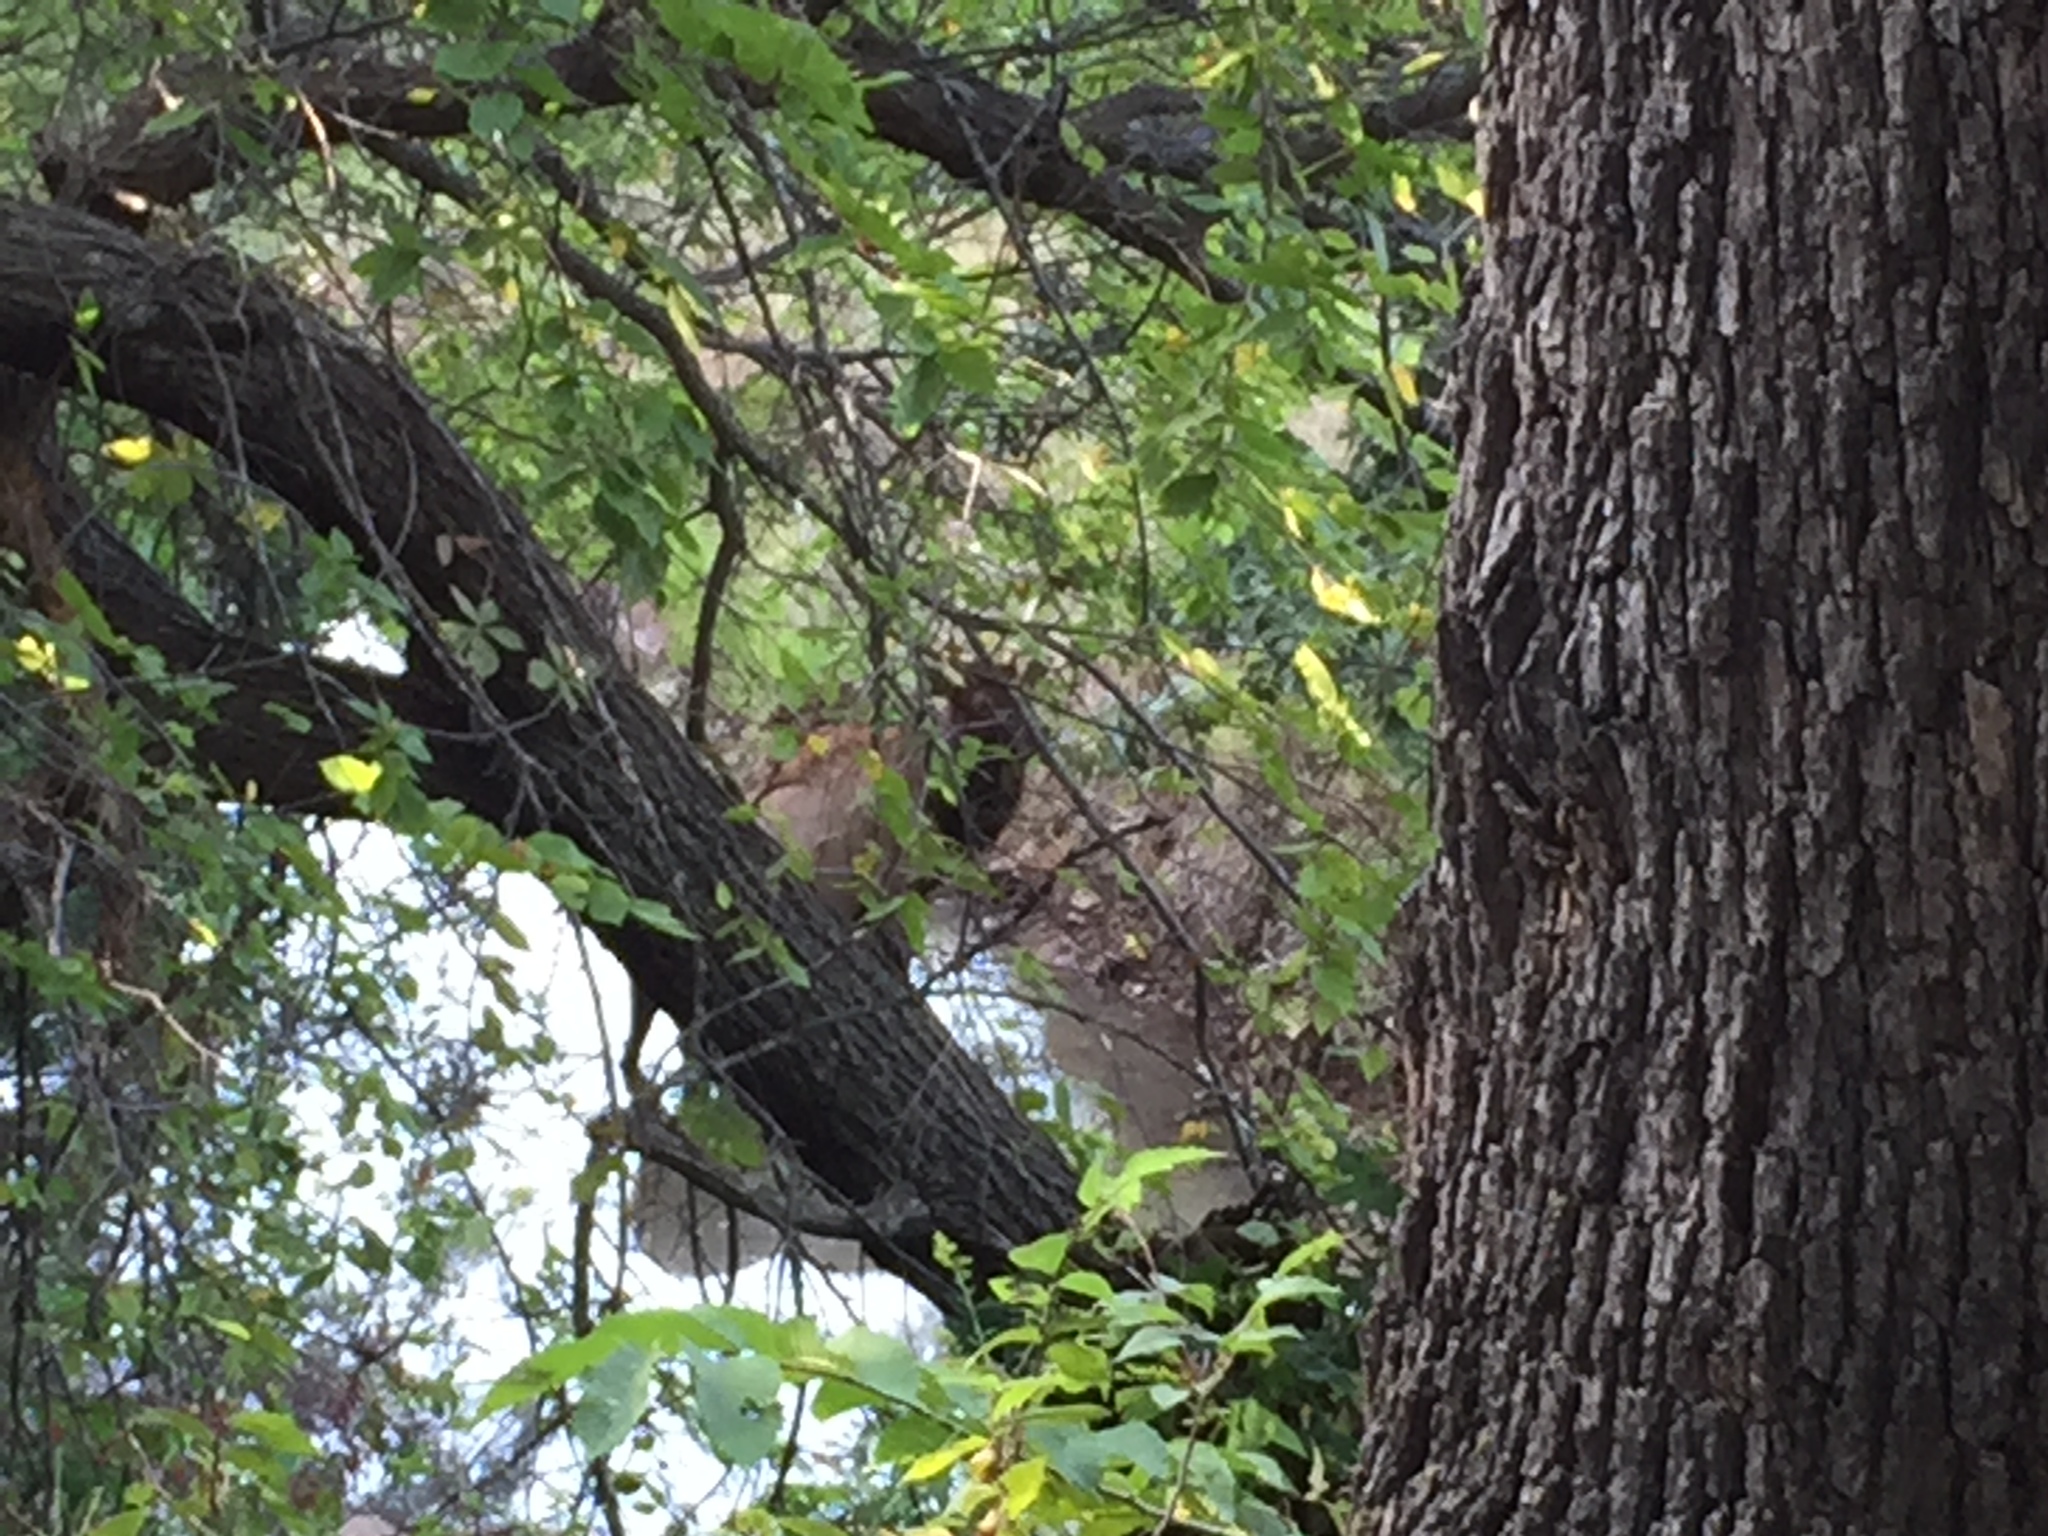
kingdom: Animalia
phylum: Chordata
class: Mammalia
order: Artiodactyla
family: Cervidae
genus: Cervus
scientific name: Cervus elaphus
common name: Red deer
